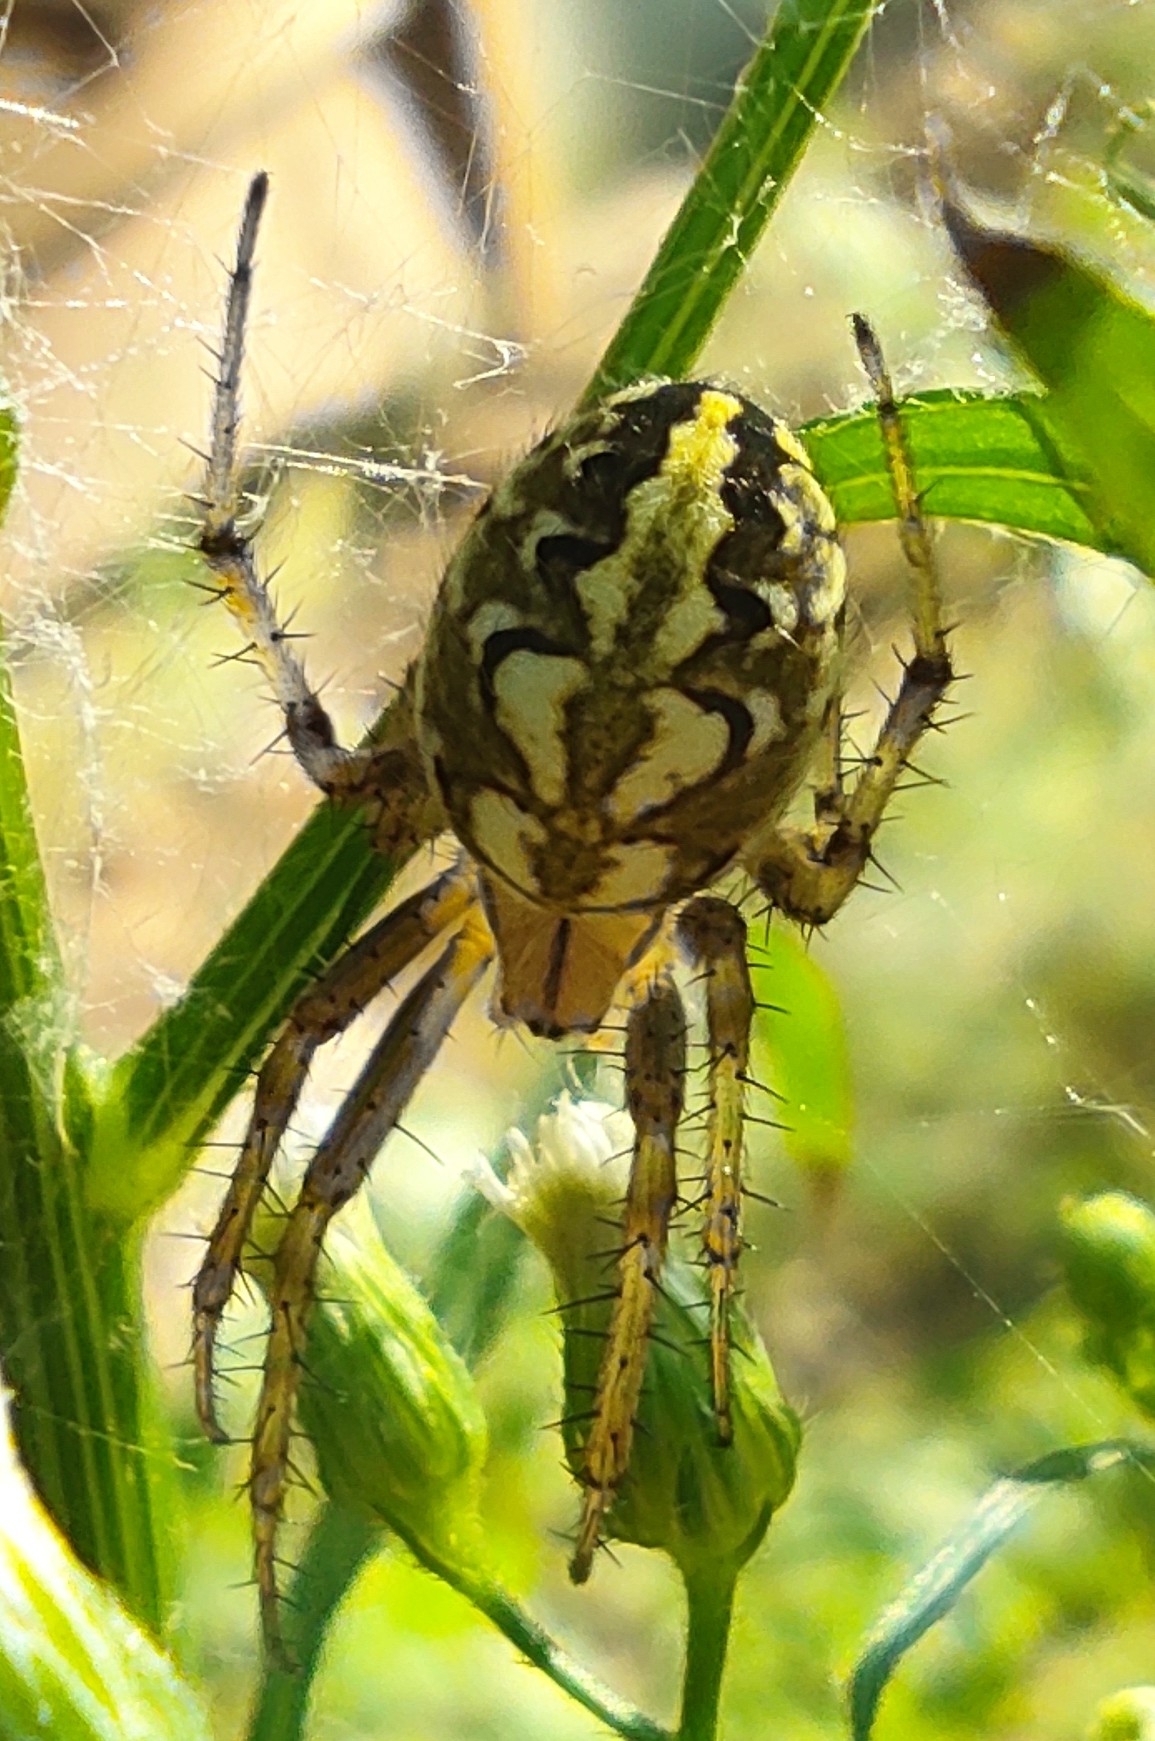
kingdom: Animalia
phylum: Arthropoda
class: Arachnida
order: Araneae
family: Araneidae
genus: Neoscona
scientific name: Neoscona adianta
